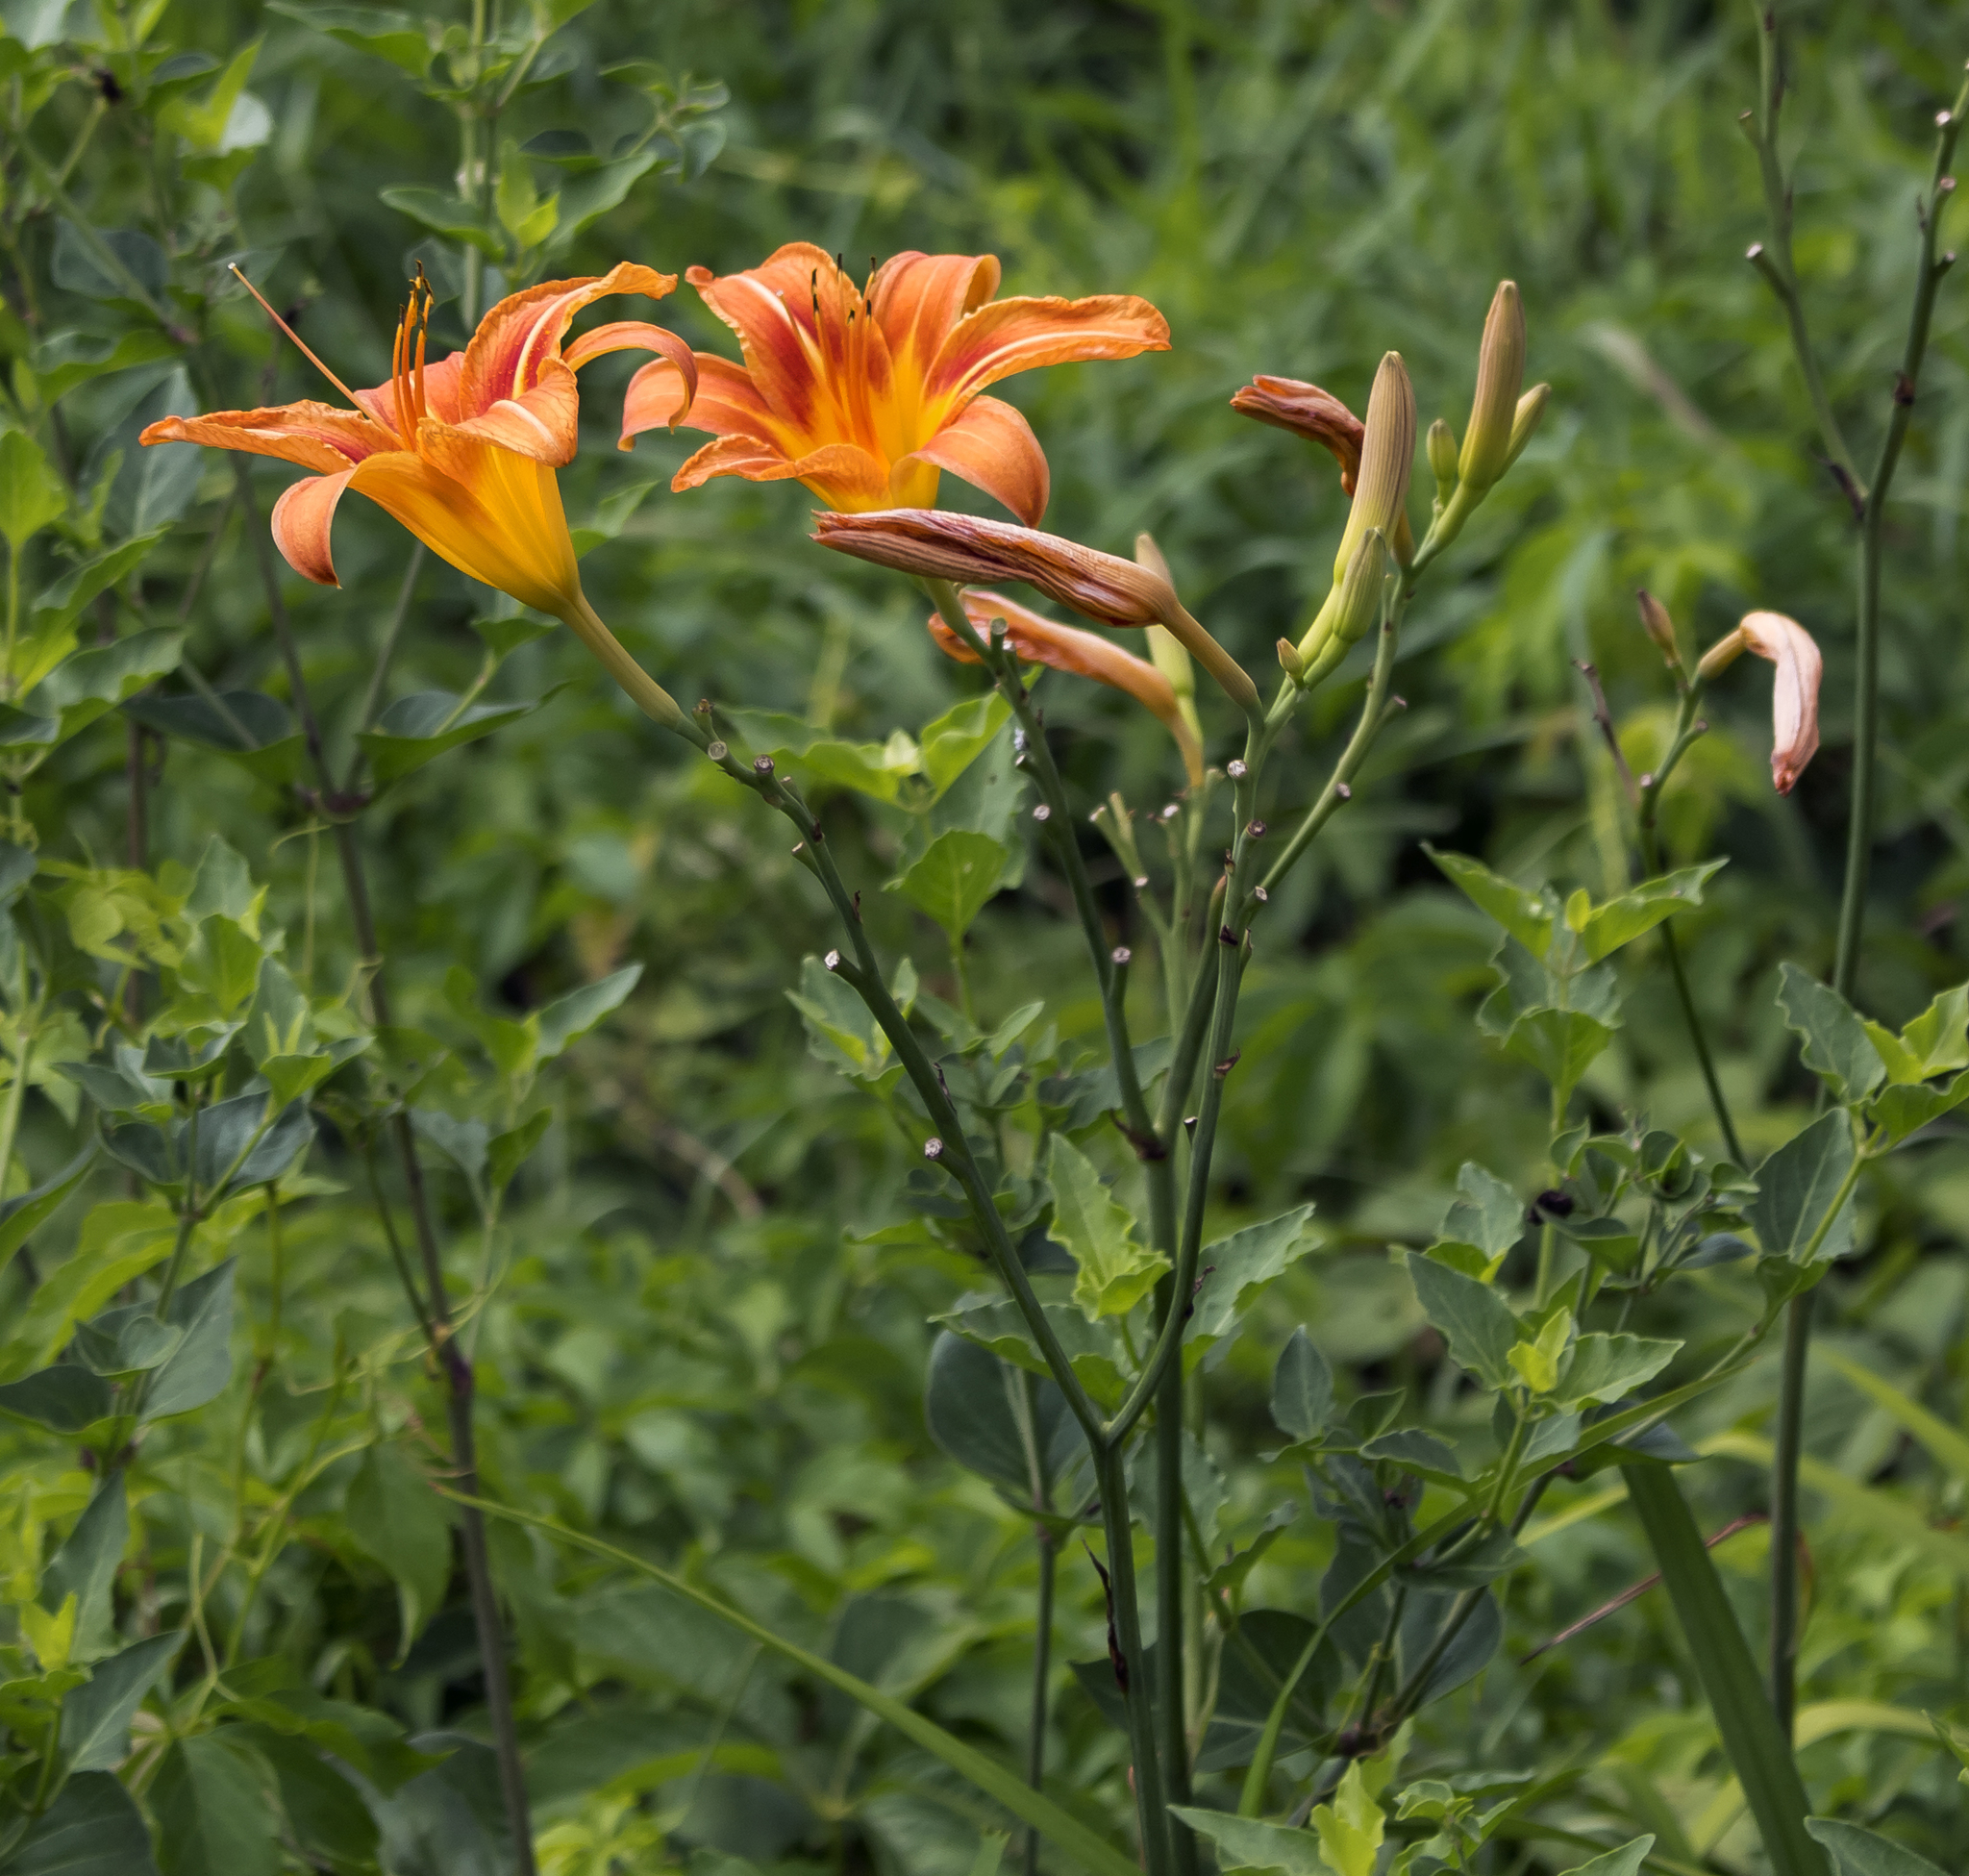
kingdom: Plantae
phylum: Tracheophyta
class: Liliopsida
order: Asparagales
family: Asphodelaceae
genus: Hemerocallis
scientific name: Hemerocallis fulva
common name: Orange day-lily
